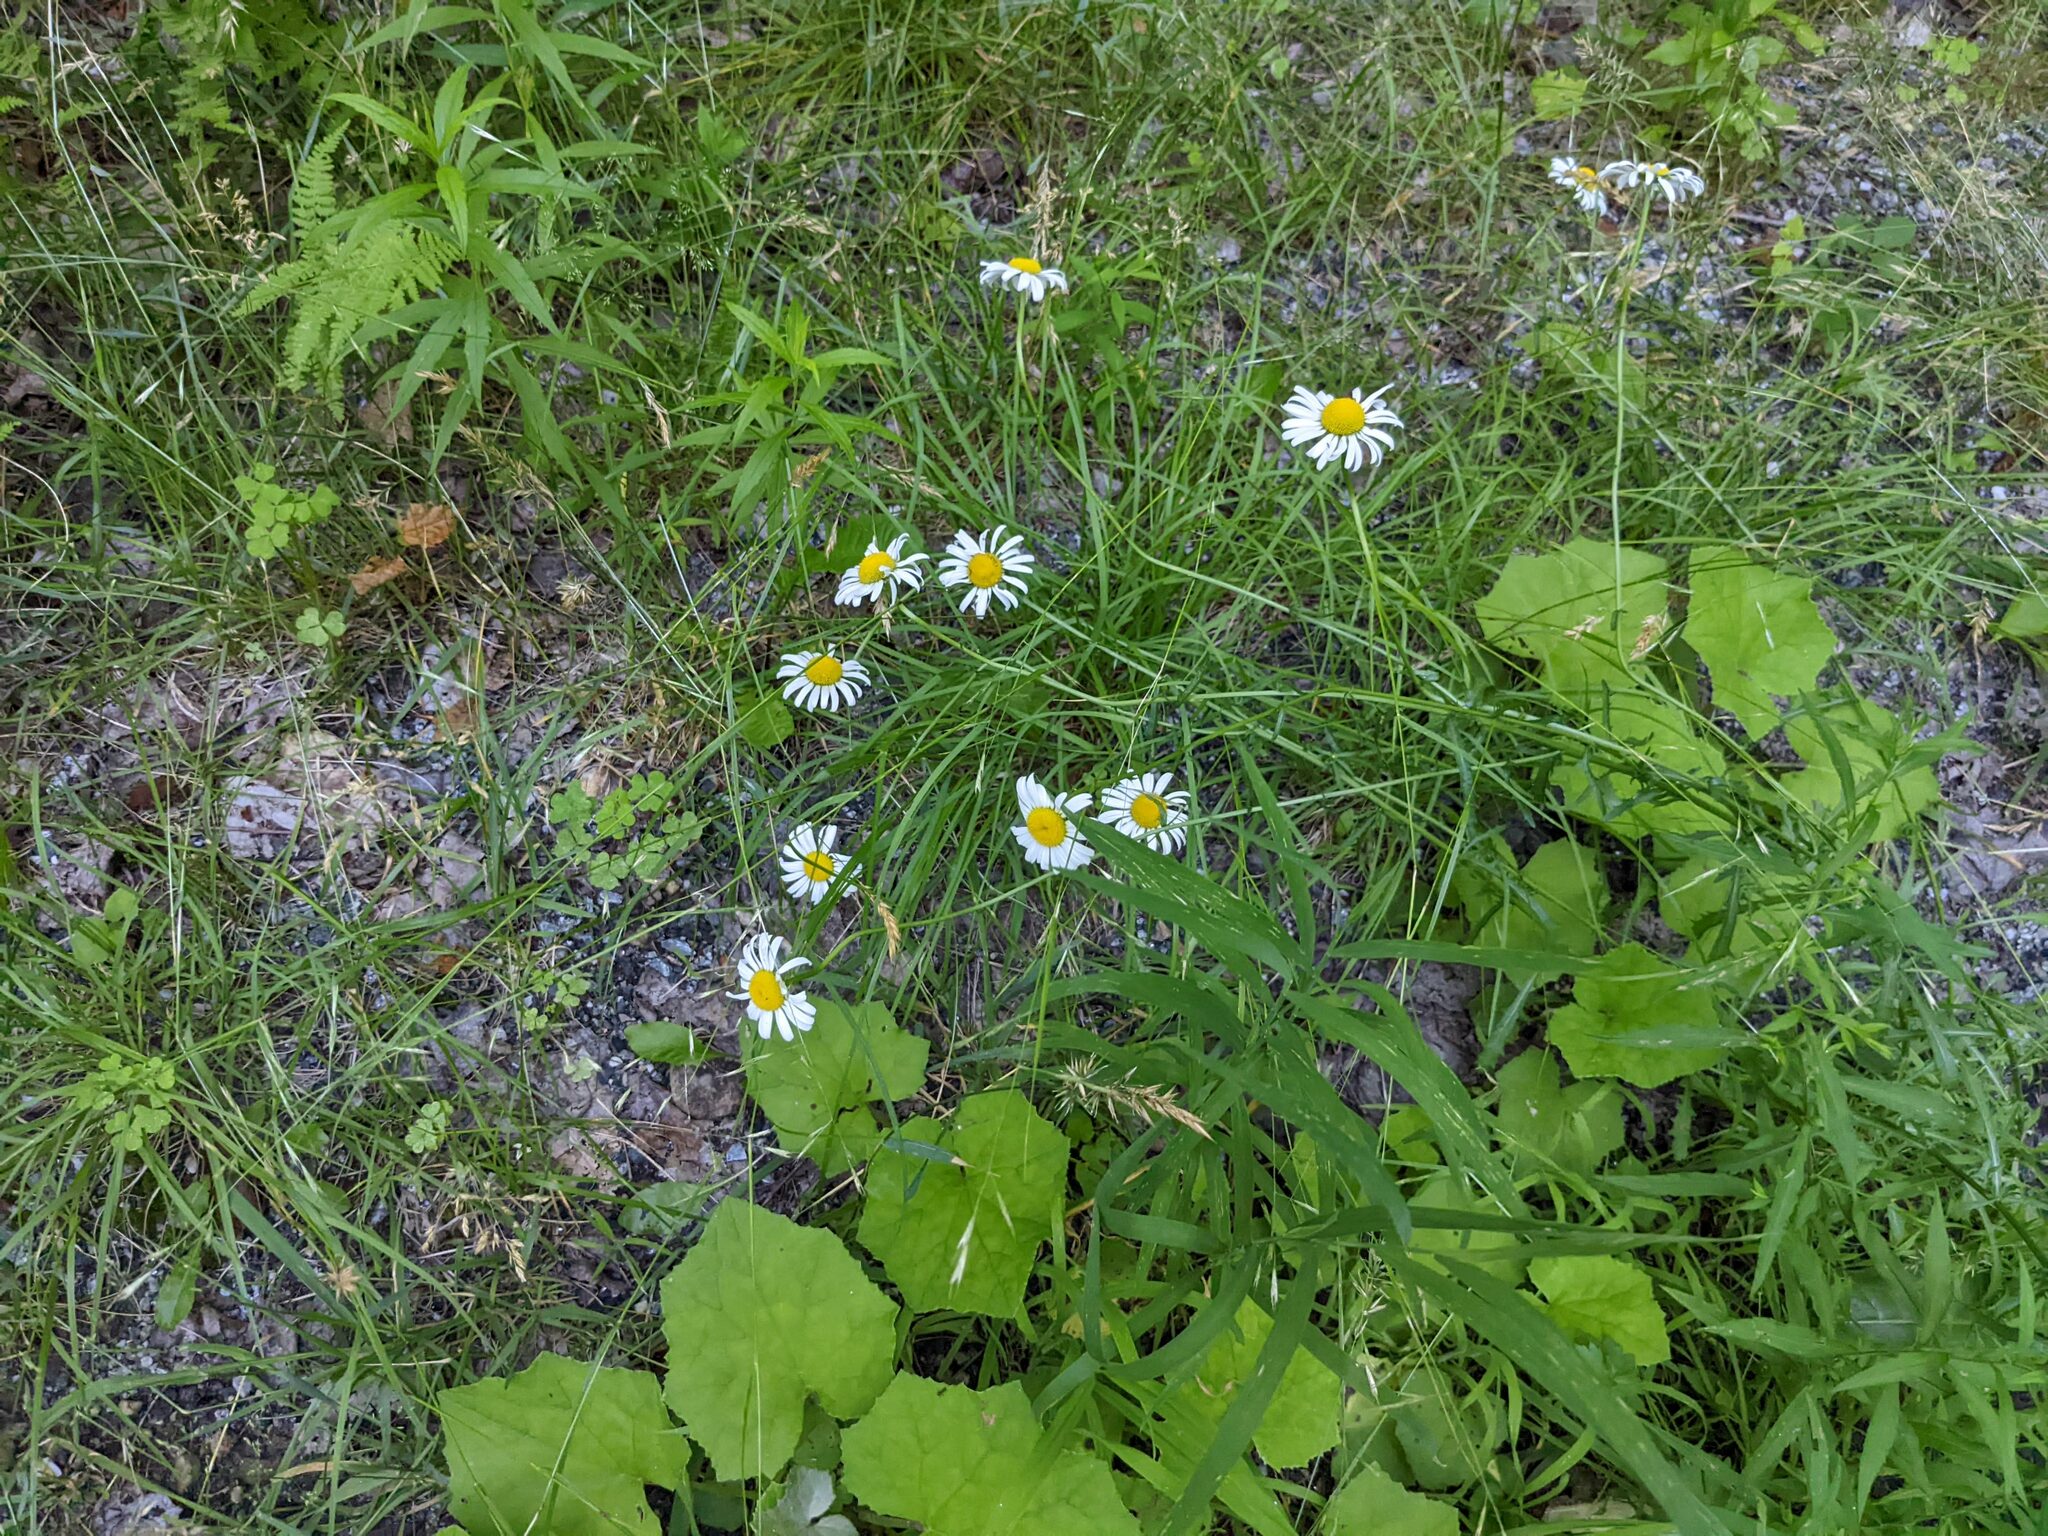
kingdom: Plantae
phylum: Tracheophyta
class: Magnoliopsida
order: Asterales
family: Asteraceae
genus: Leucanthemum
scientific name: Leucanthemum vulgare
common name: Oxeye daisy
